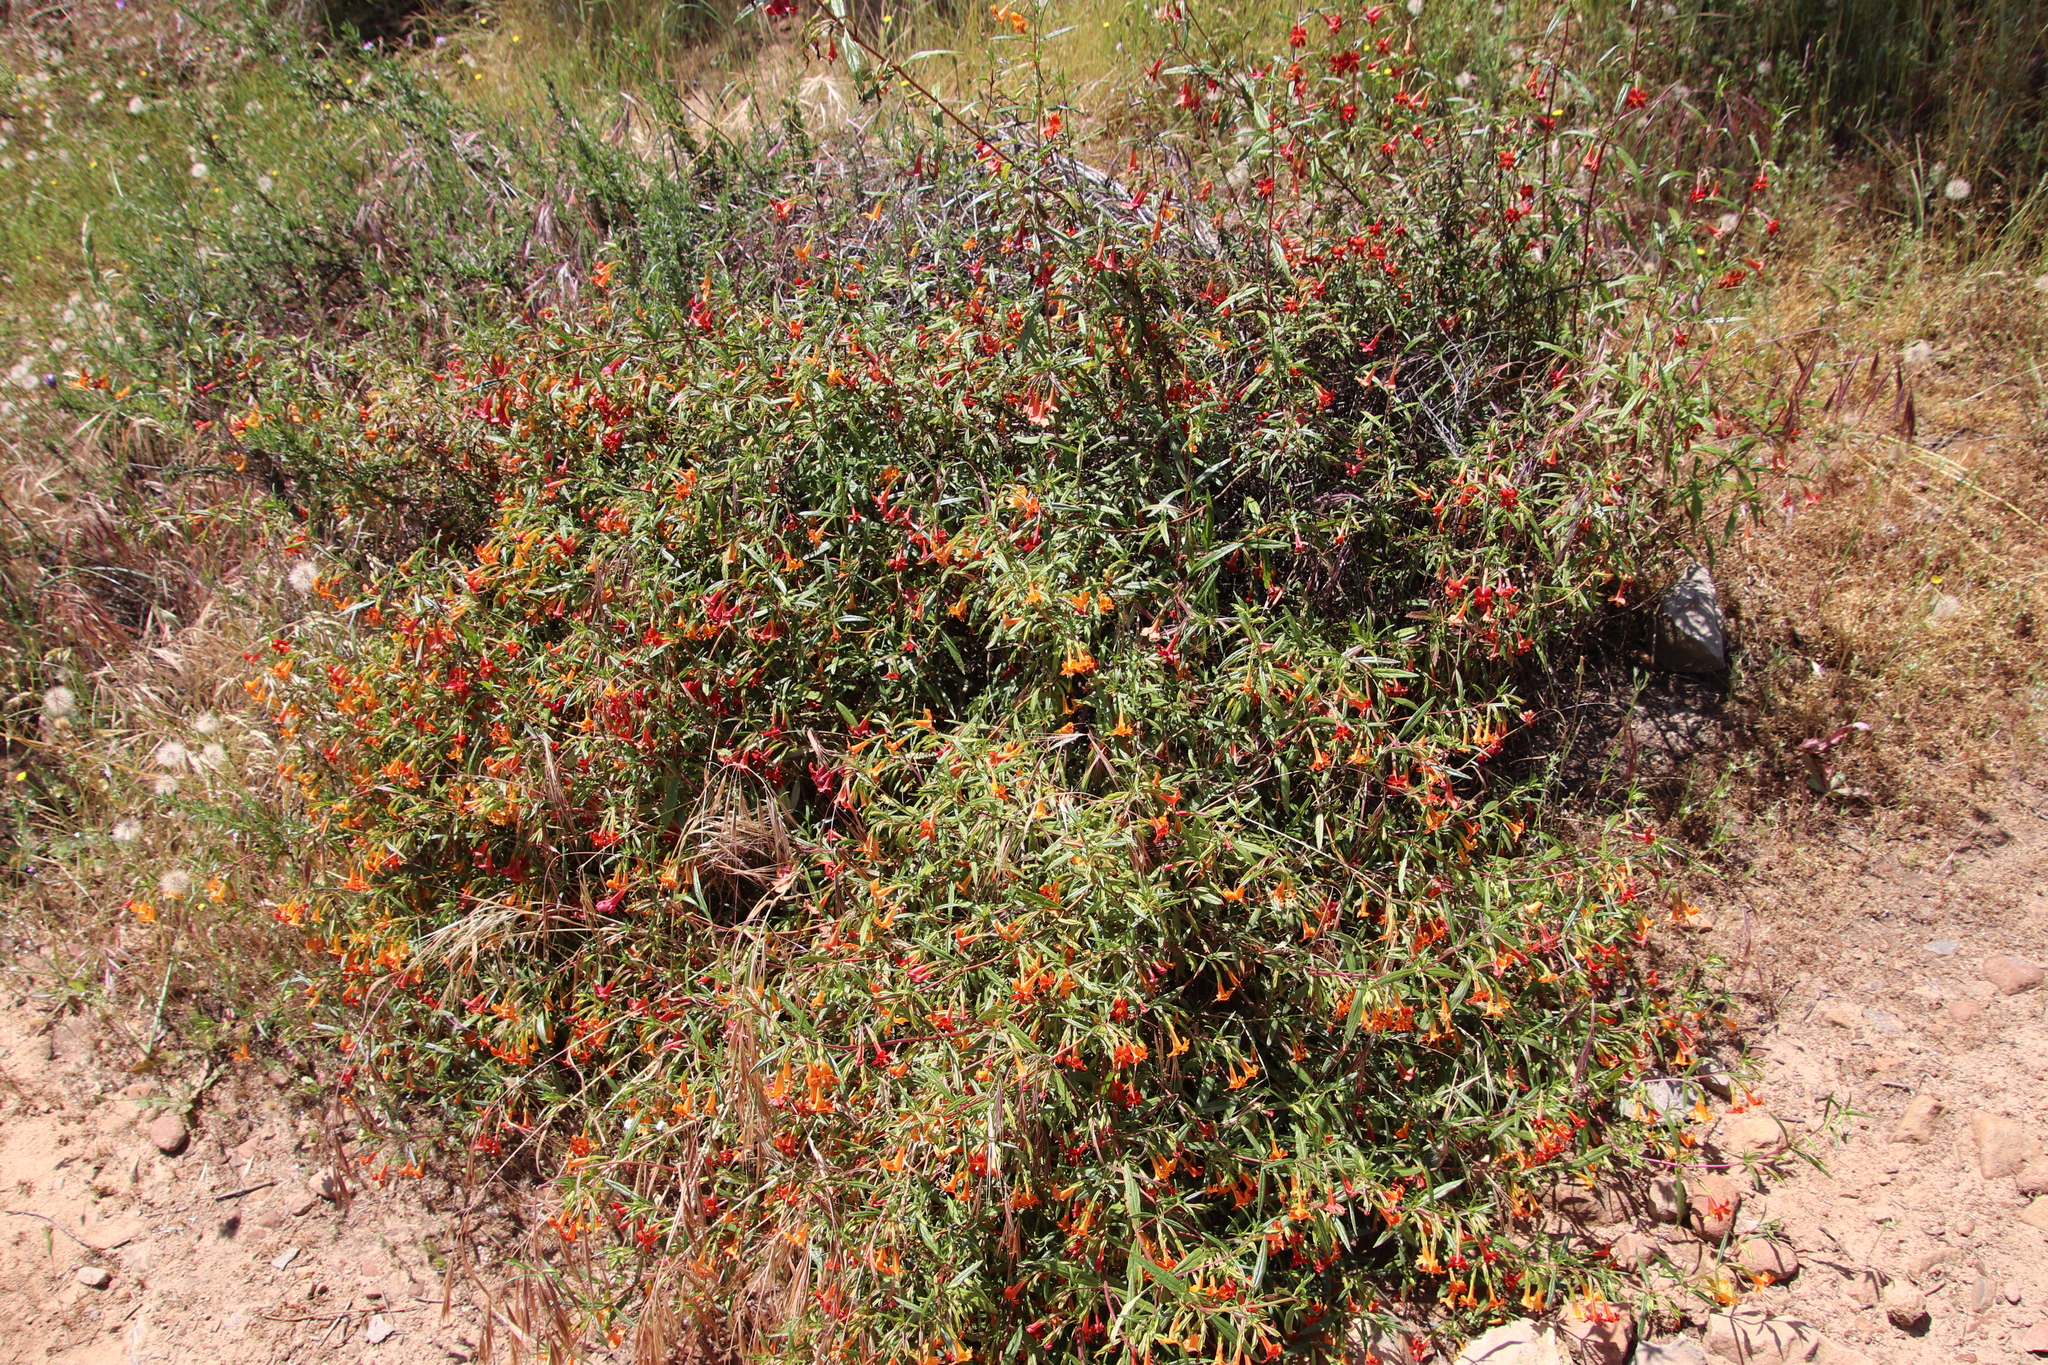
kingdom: Plantae
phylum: Tracheophyta
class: Magnoliopsida
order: Lamiales
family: Phrymaceae
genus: Diplacus
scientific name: Diplacus australis
